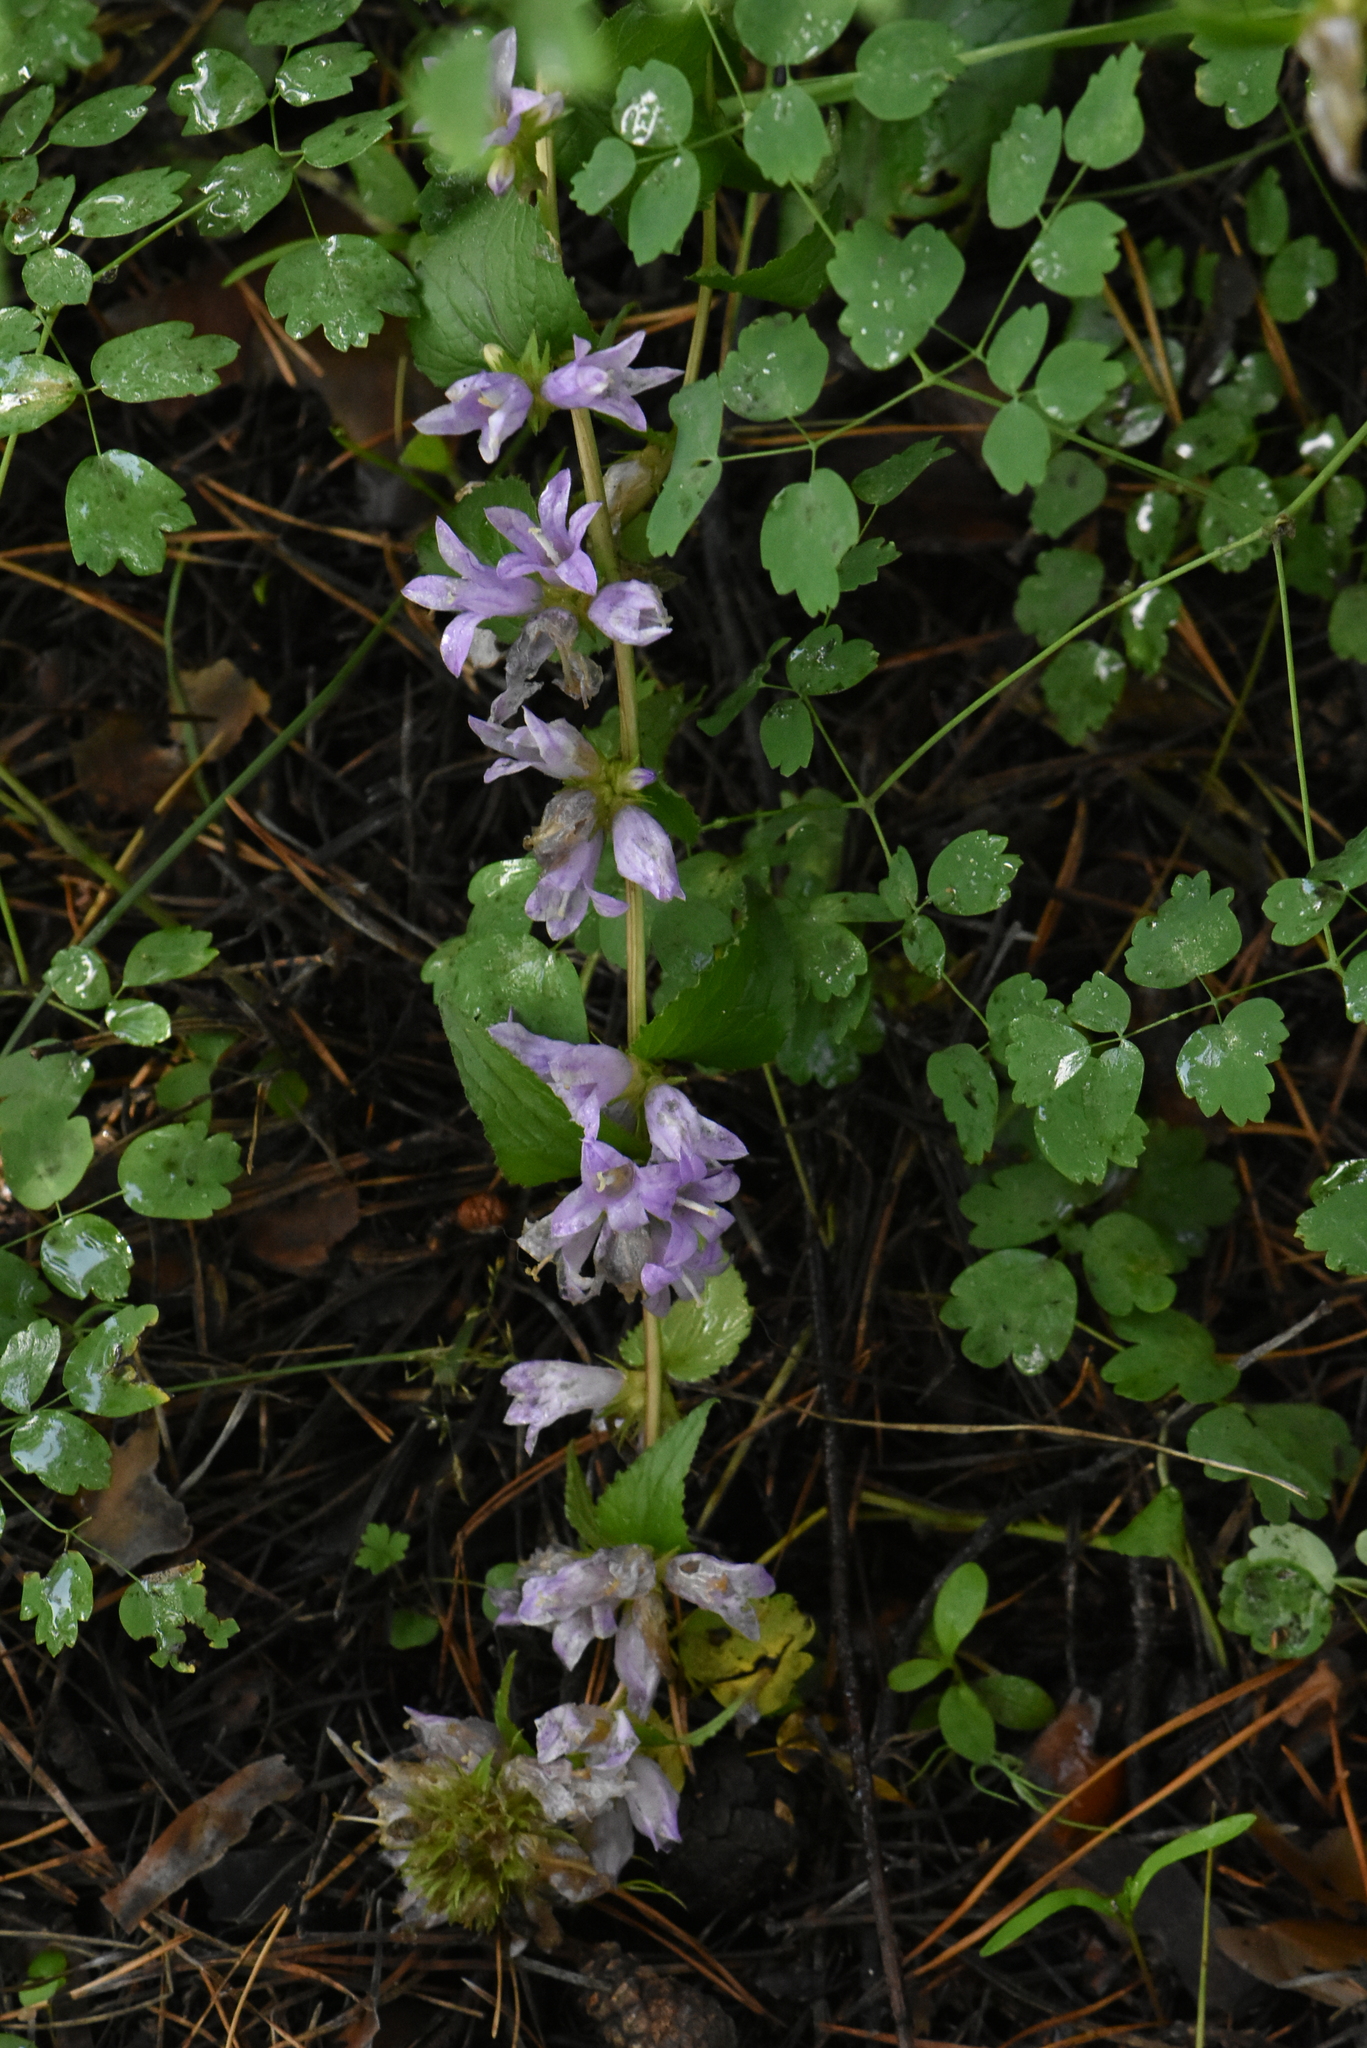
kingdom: Plantae
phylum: Tracheophyta
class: Magnoliopsida
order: Asterales
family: Campanulaceae
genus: Campanula
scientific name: Campanula glomerata
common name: Clustered bellflower
